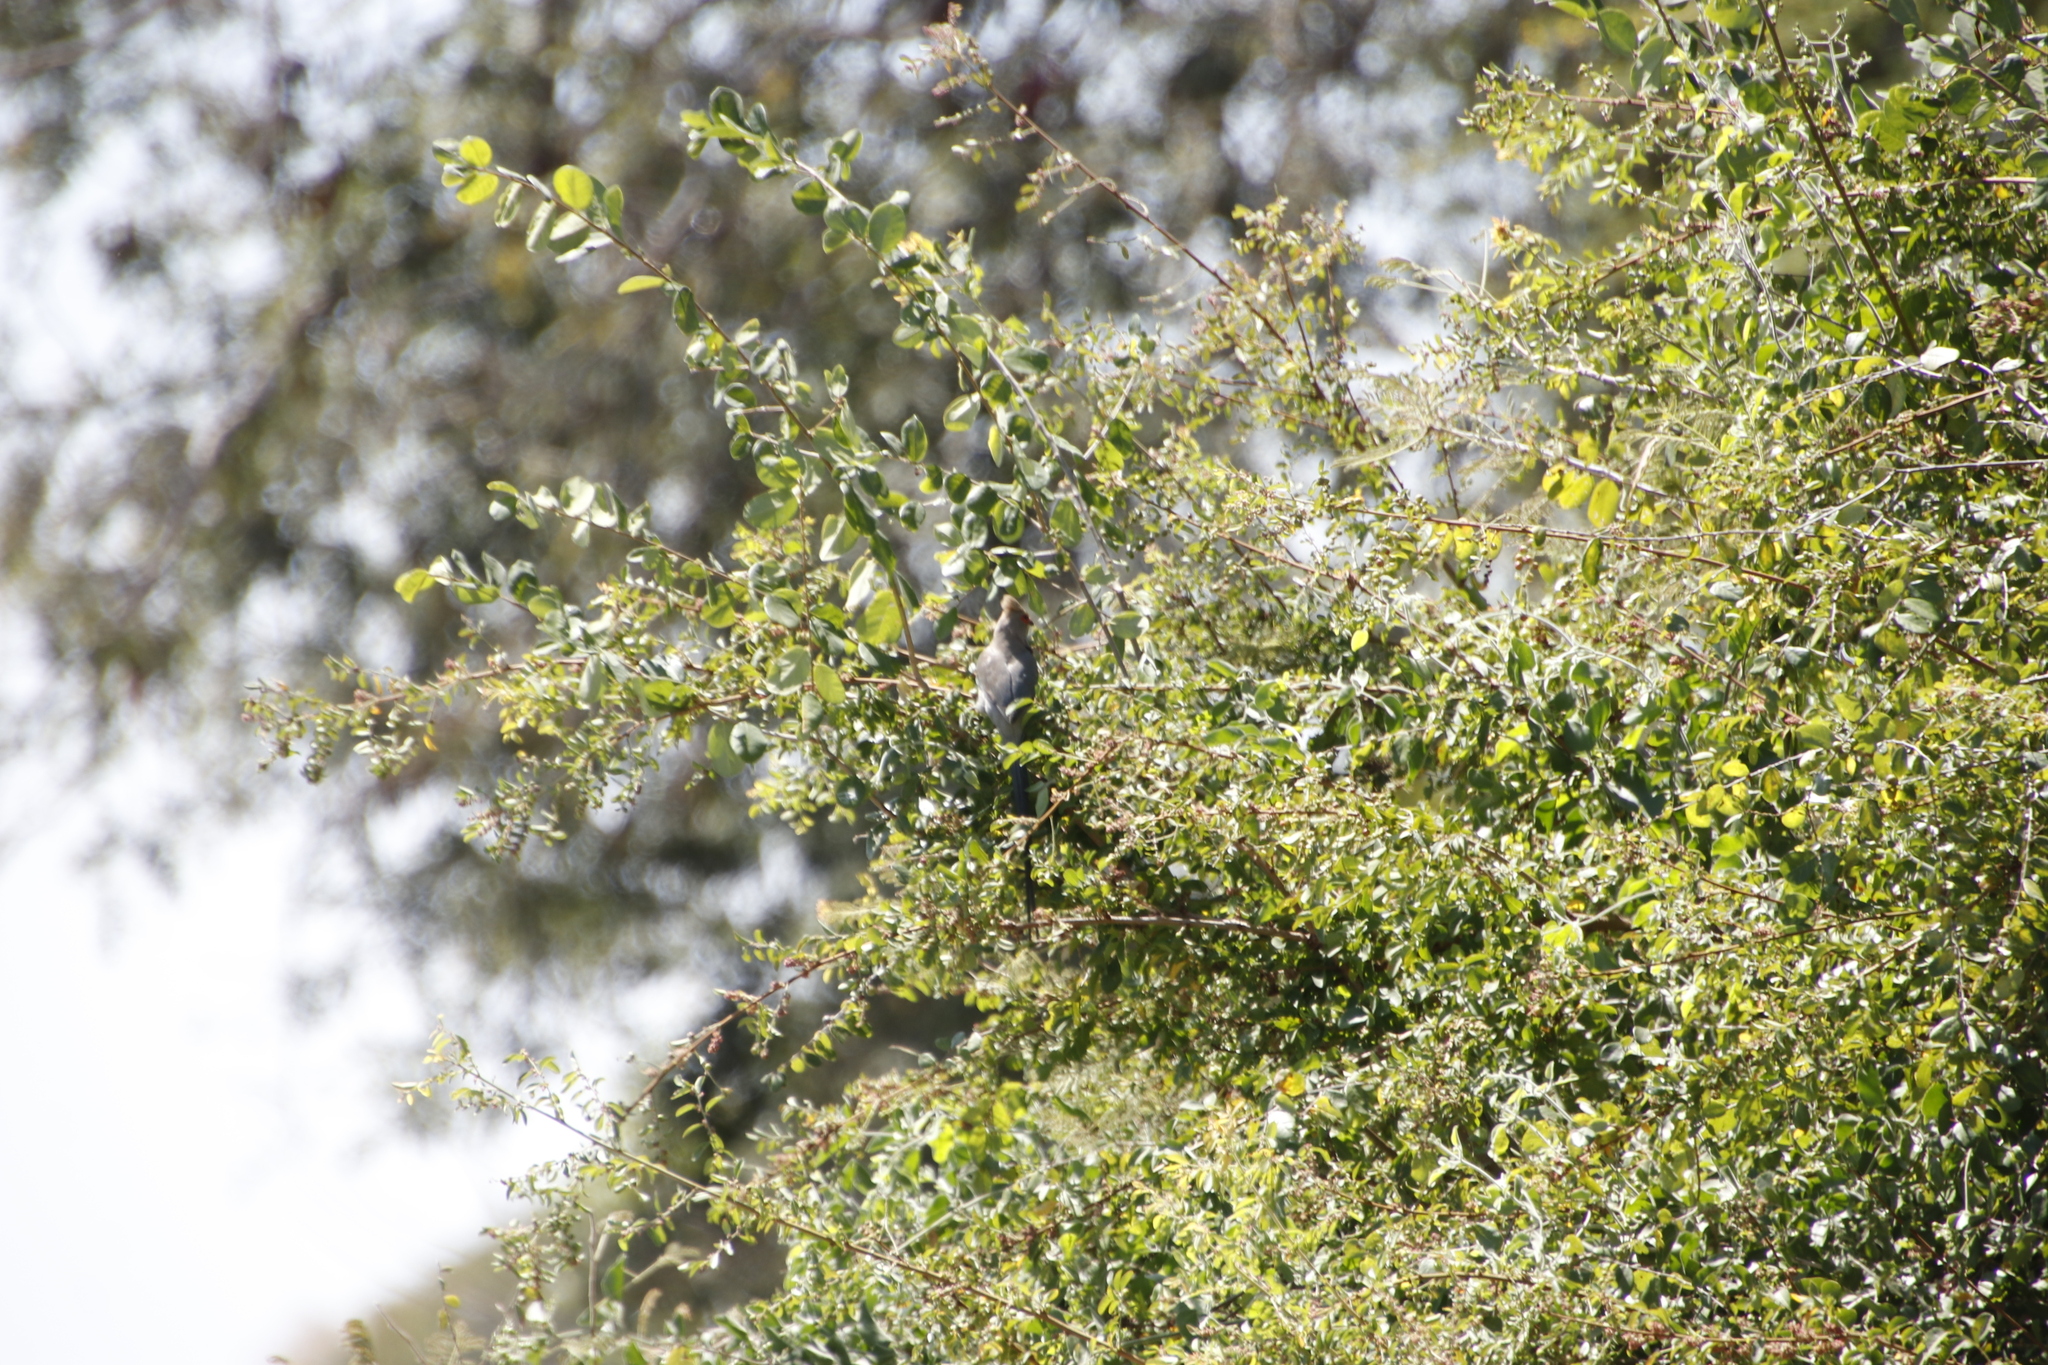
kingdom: Animalia
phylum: Chordata
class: Aves
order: Coliiformes
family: Coliidae
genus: Urocolius
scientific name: Urocolius indicus
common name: Red-faced mousebird
